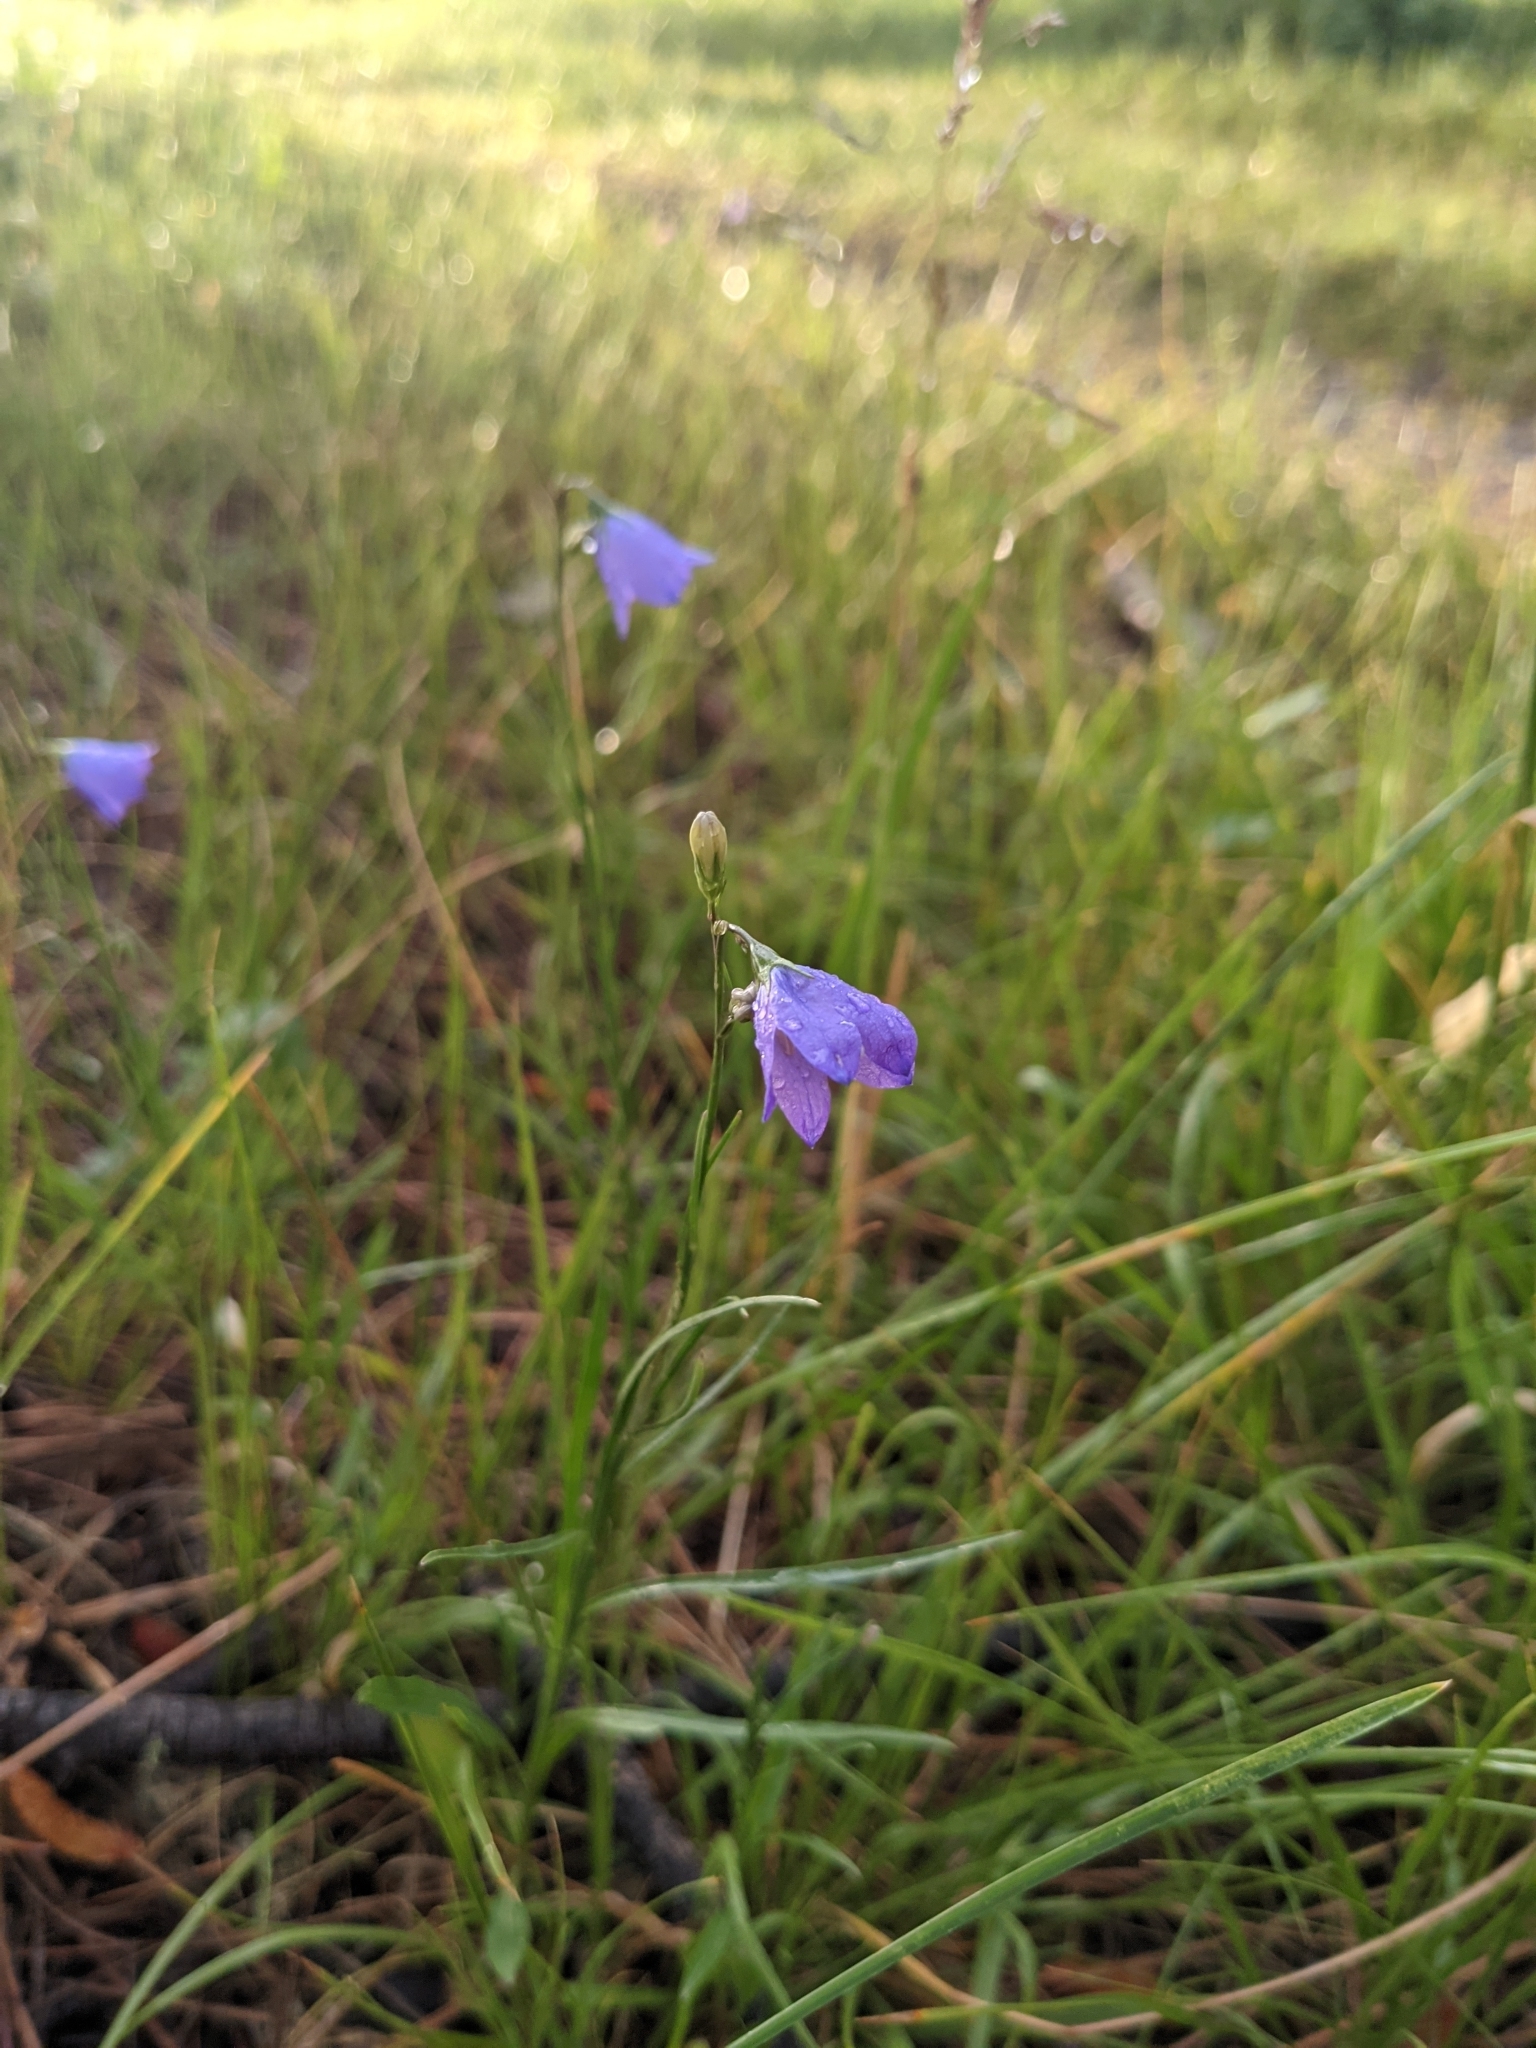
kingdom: Plantae
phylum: Tracheophyta
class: Magnoliopsida
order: Asterales
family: Campanulaceae
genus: Campanula
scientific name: Campanula petiolata
